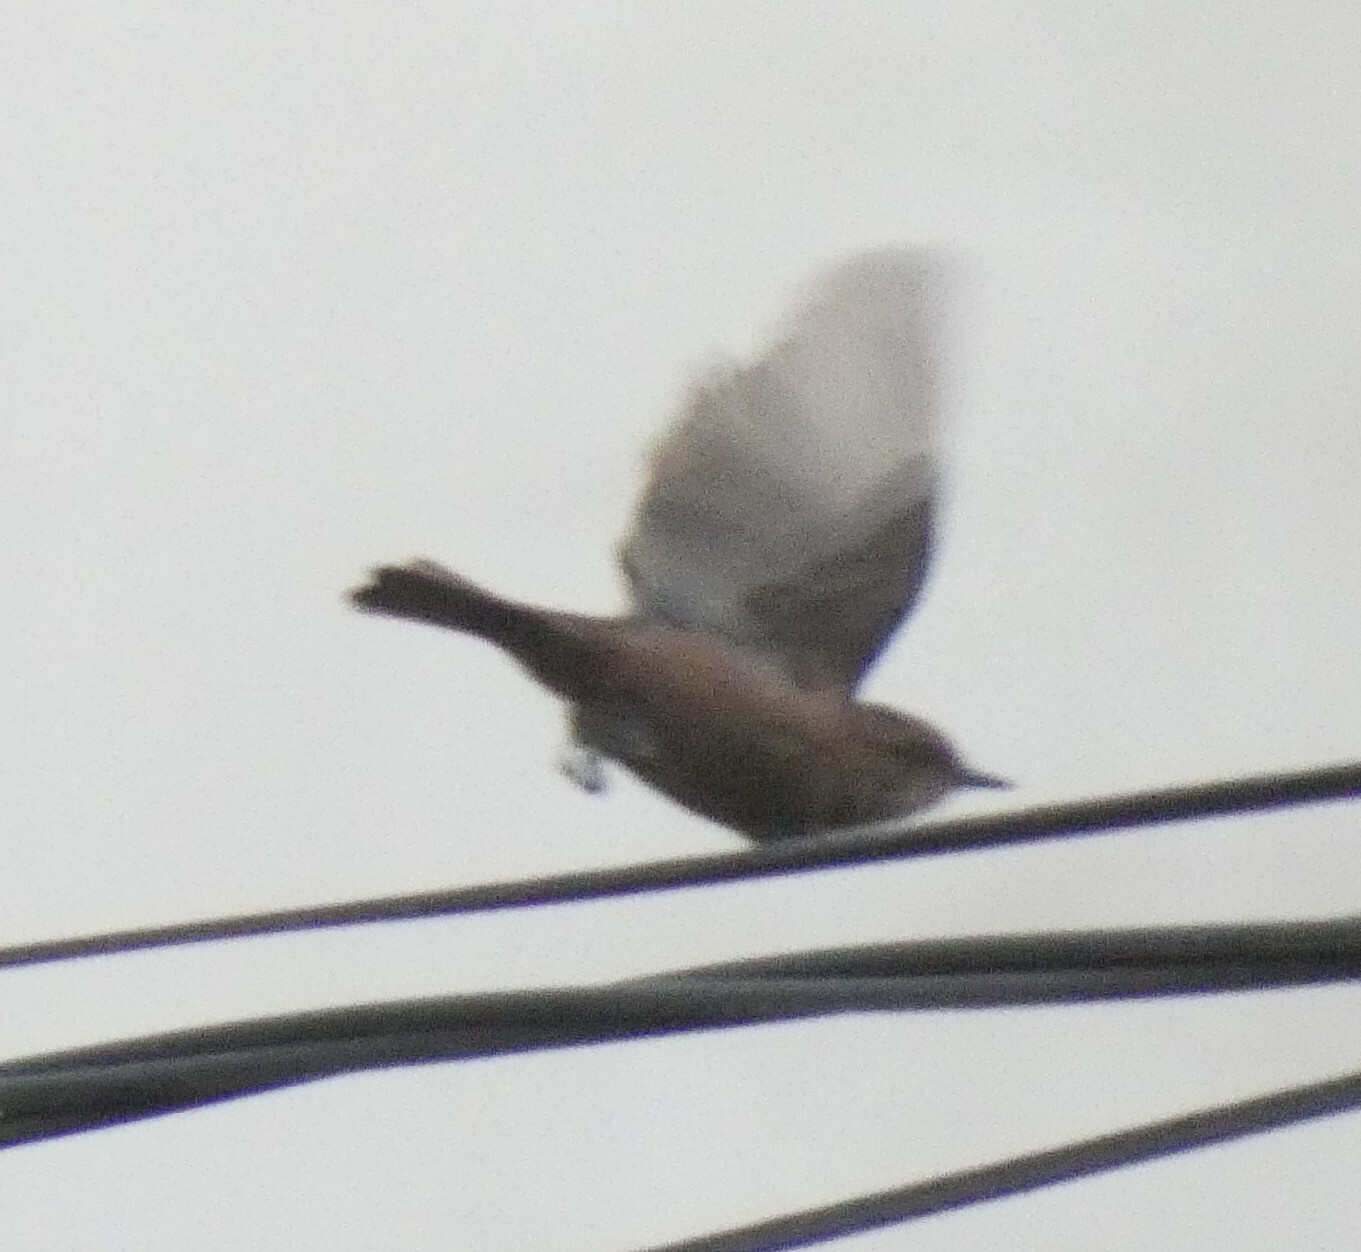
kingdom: Animalia
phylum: Chordata
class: Aves
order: Passeriformes
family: Tyrannidae
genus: Pyrocephalus
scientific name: Pyrocephalus rubinus
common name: Vermilion flycatcher
